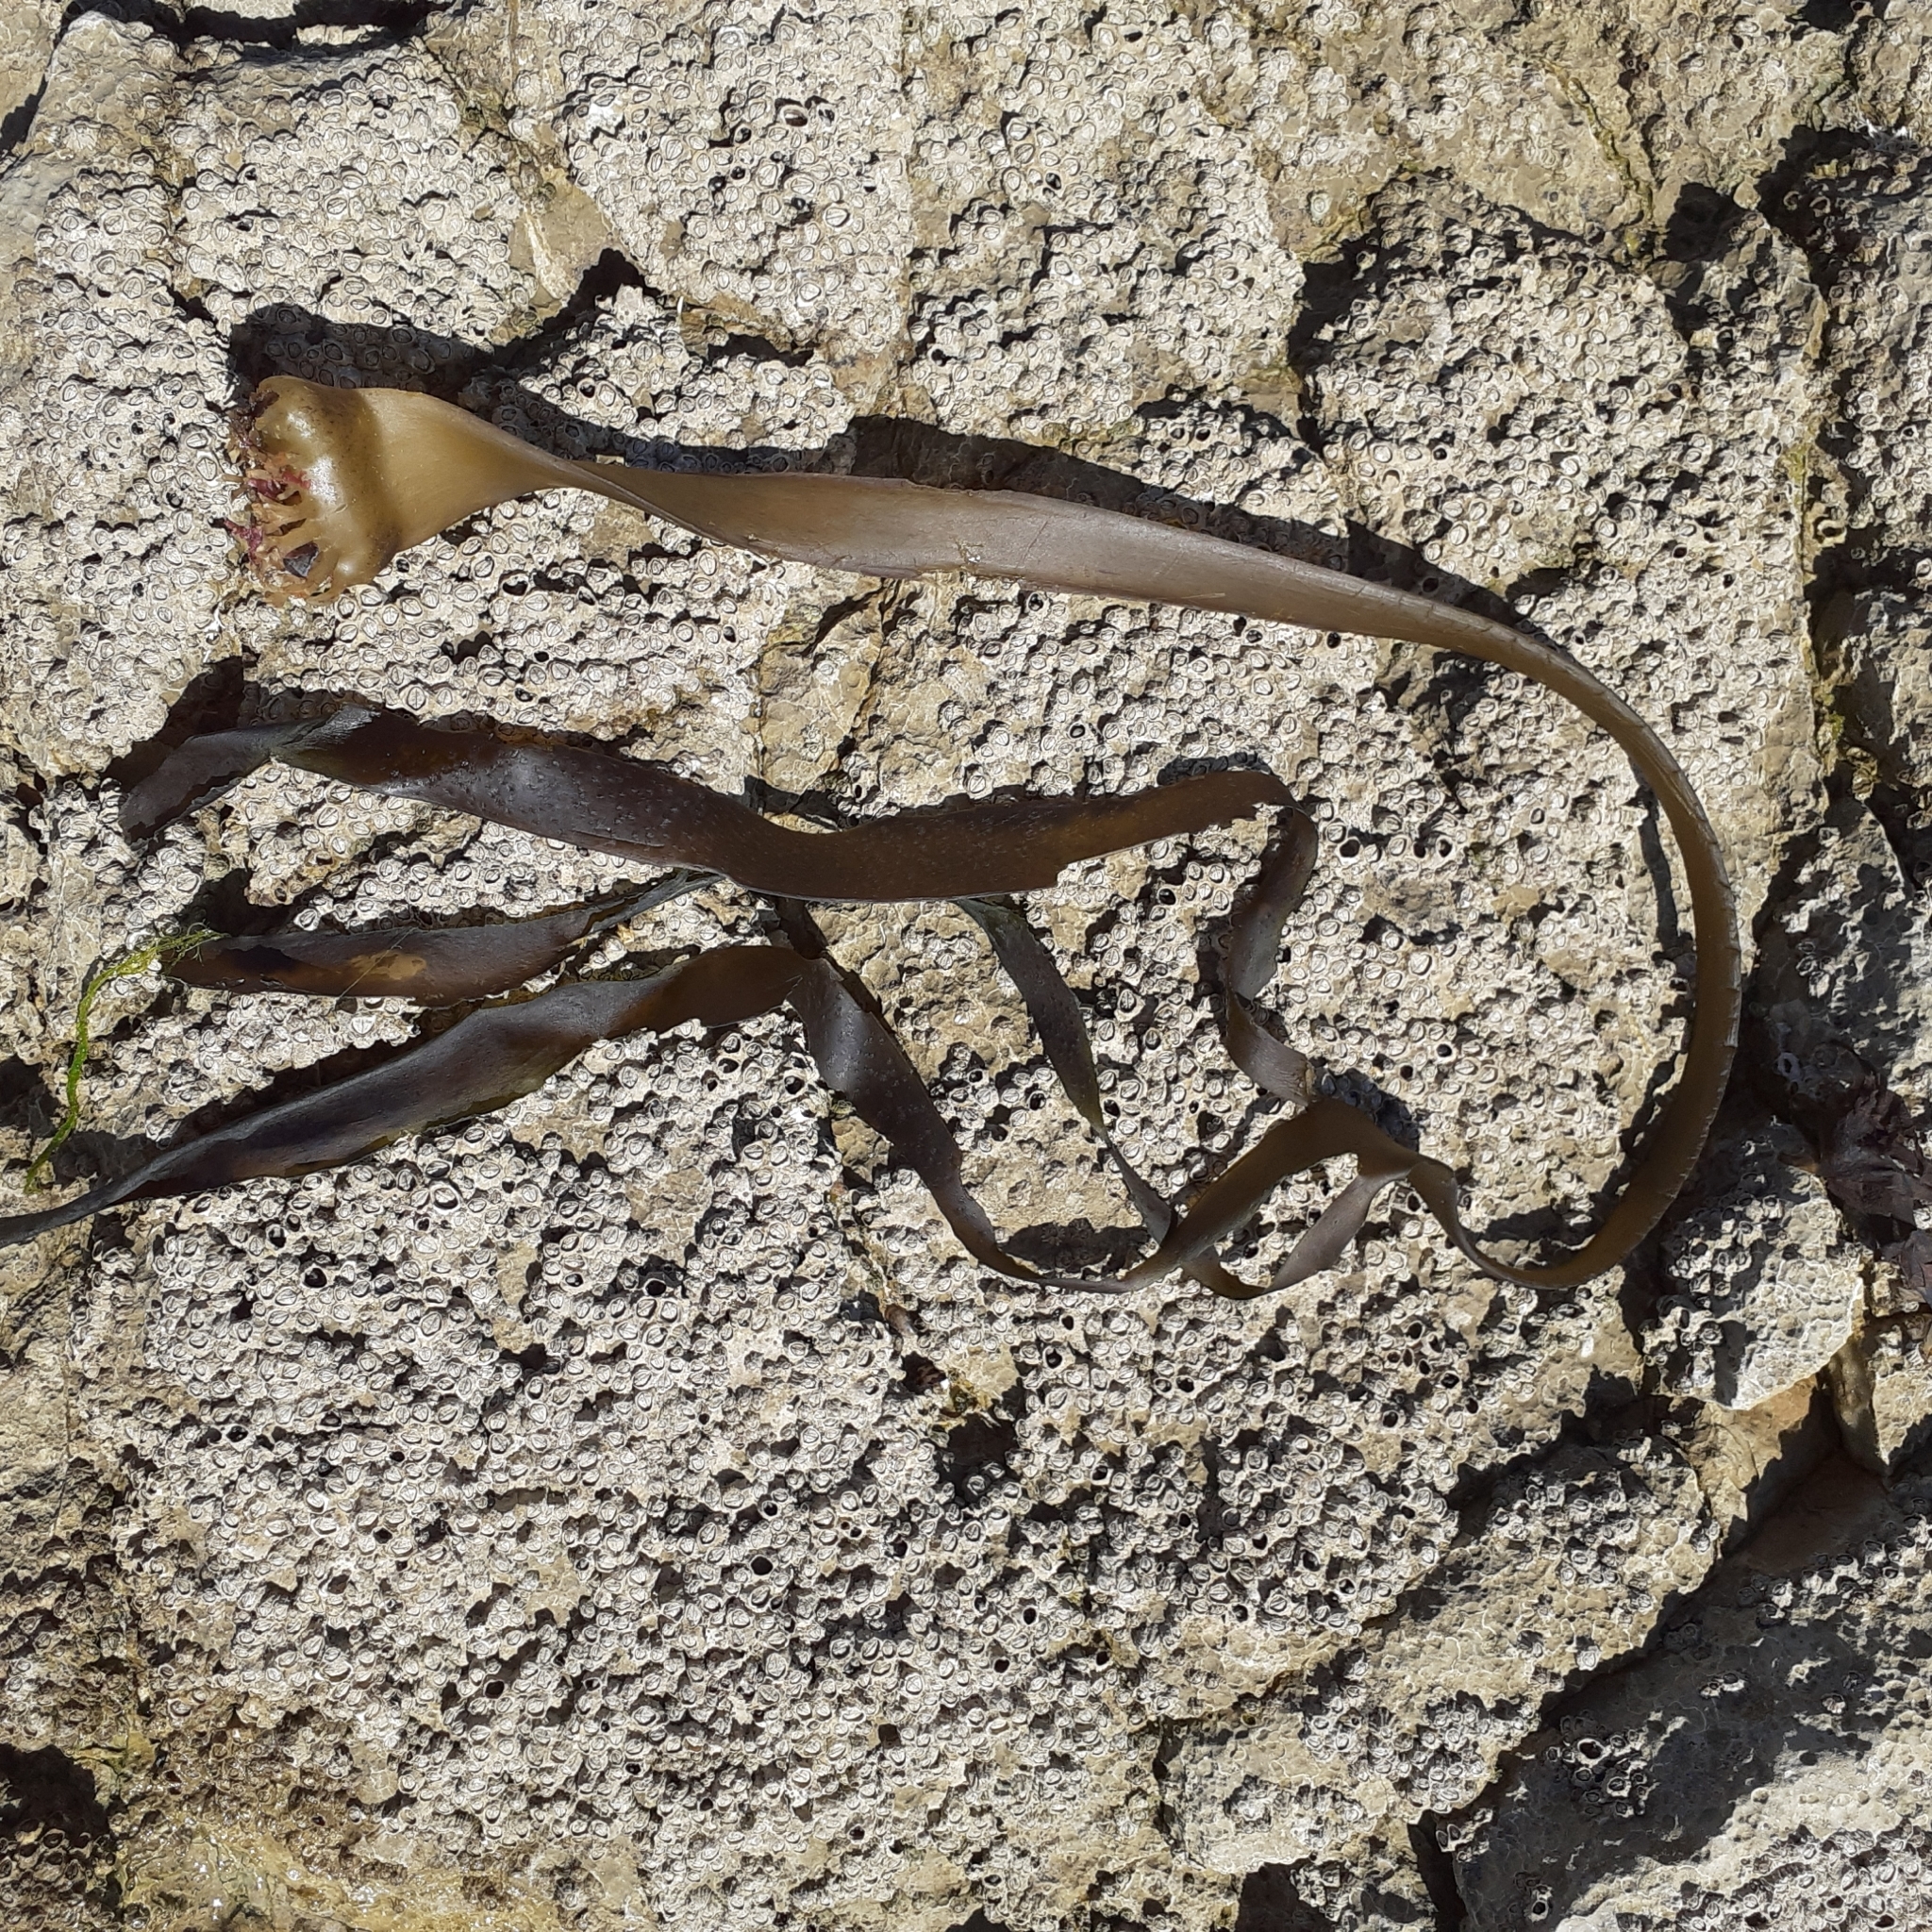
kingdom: Chromista
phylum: Ochrophyta
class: Phaeophyceae
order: Tilopteridales
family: Phyllariaceae
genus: Saccorhiza
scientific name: Saccorhiza polyschides
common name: Furbelows
